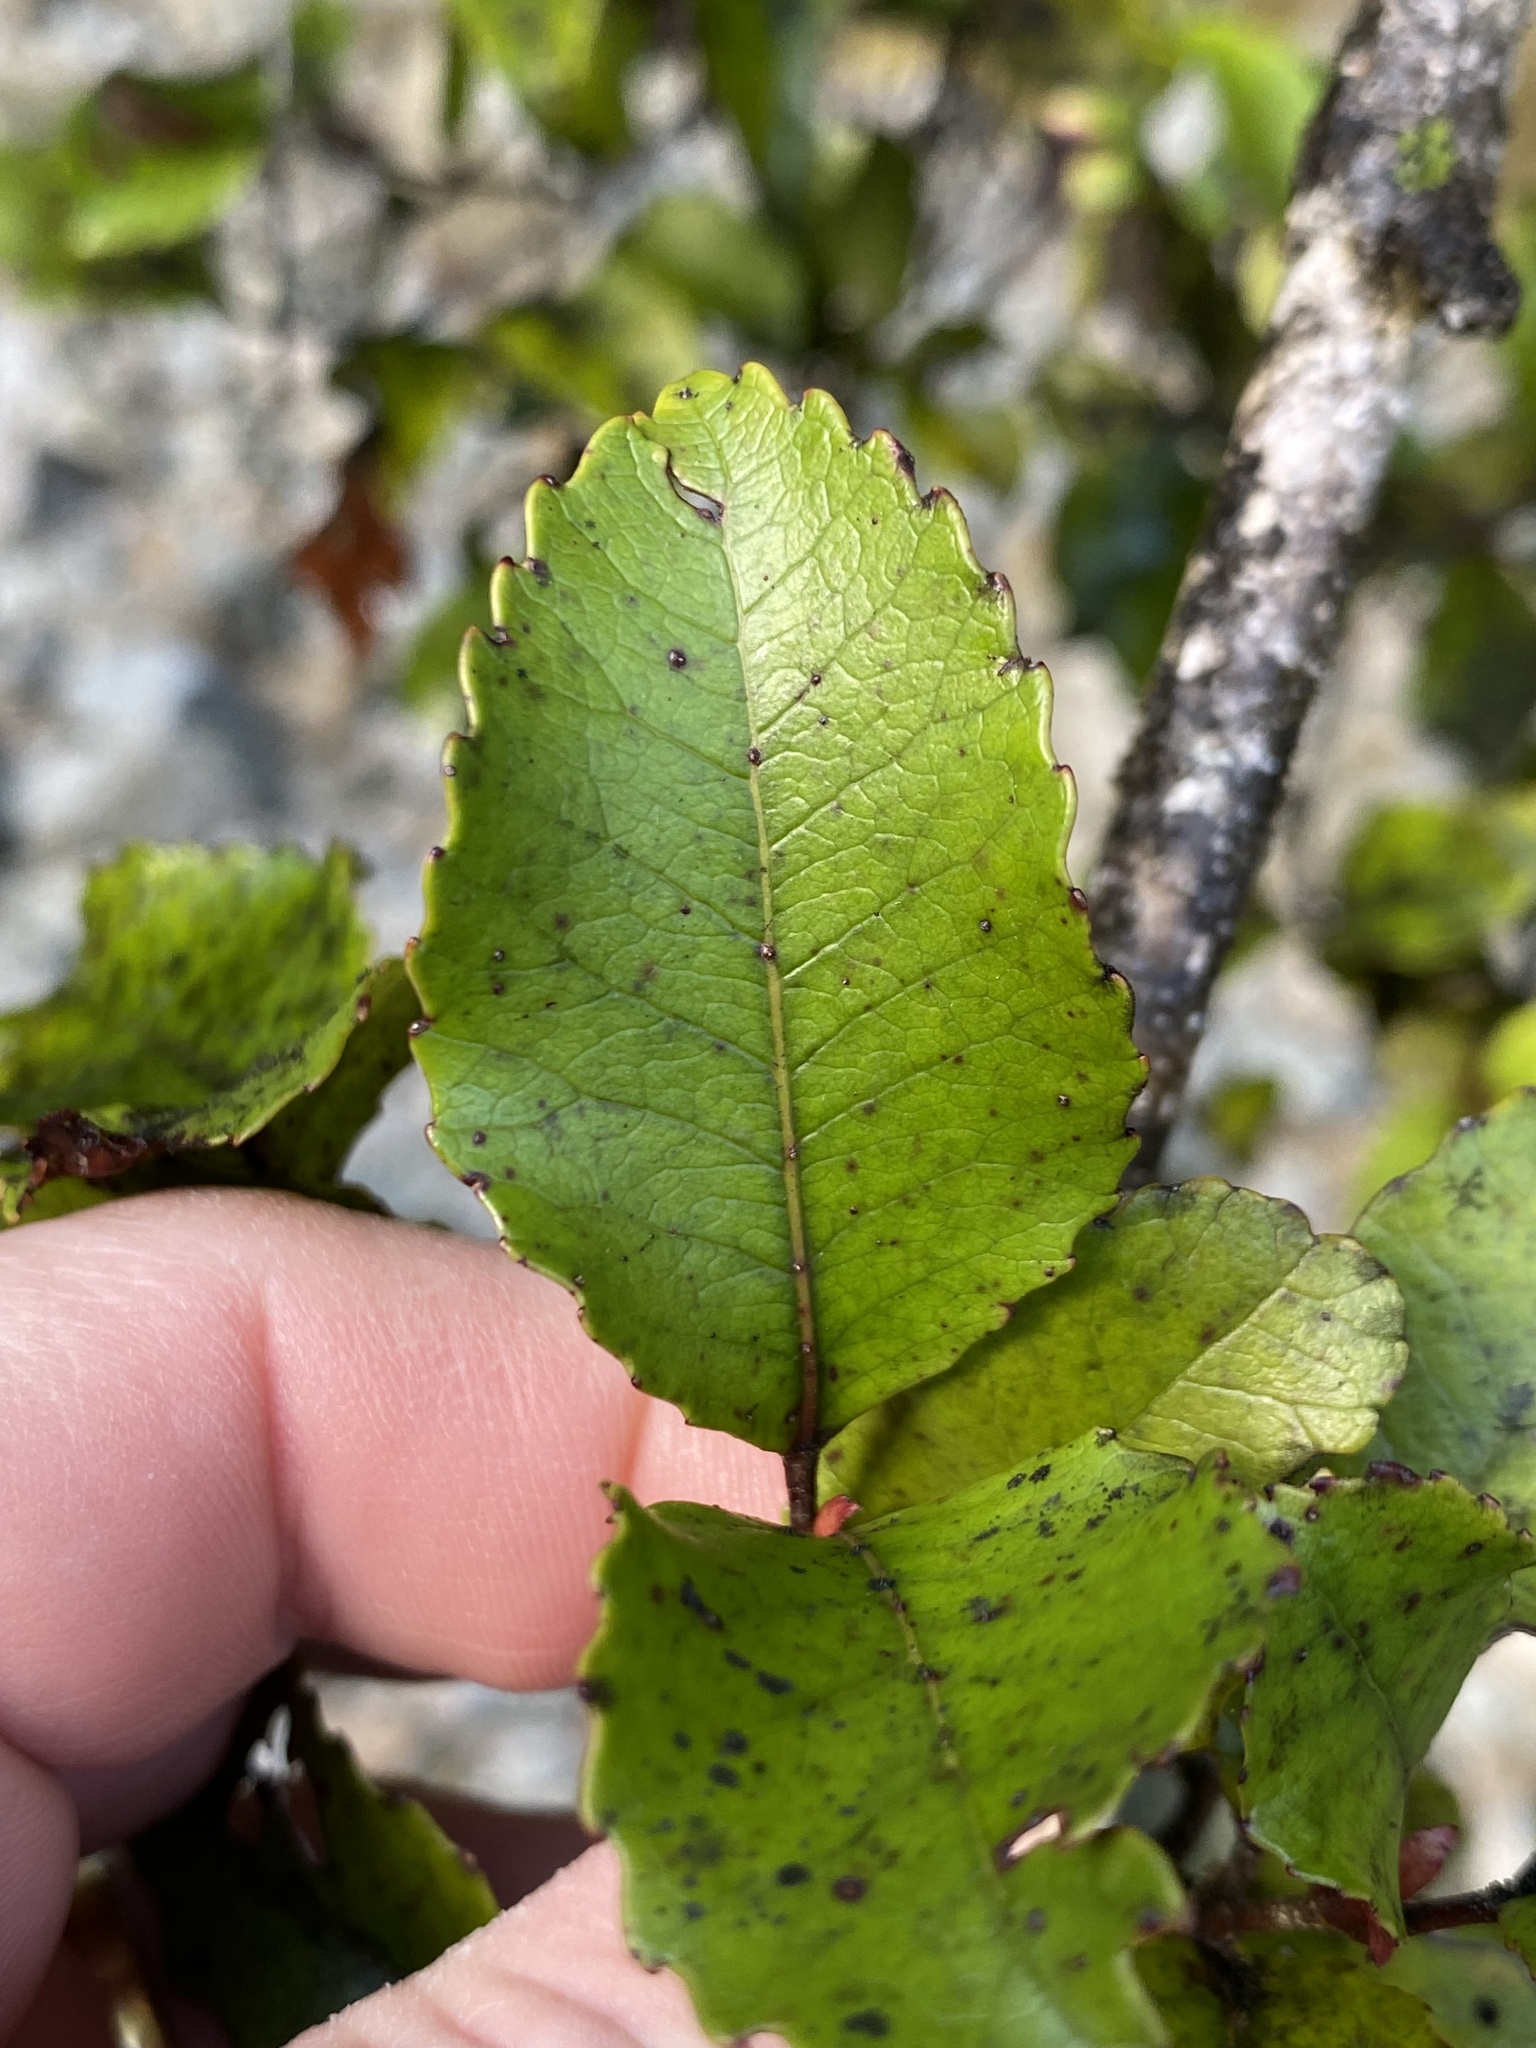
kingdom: Plantae
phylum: Tracheophyta
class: Magnoliopsida
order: Oxalidales
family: Cunoniaceae
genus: Pterophylla
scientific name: Pterophylla racemosa
